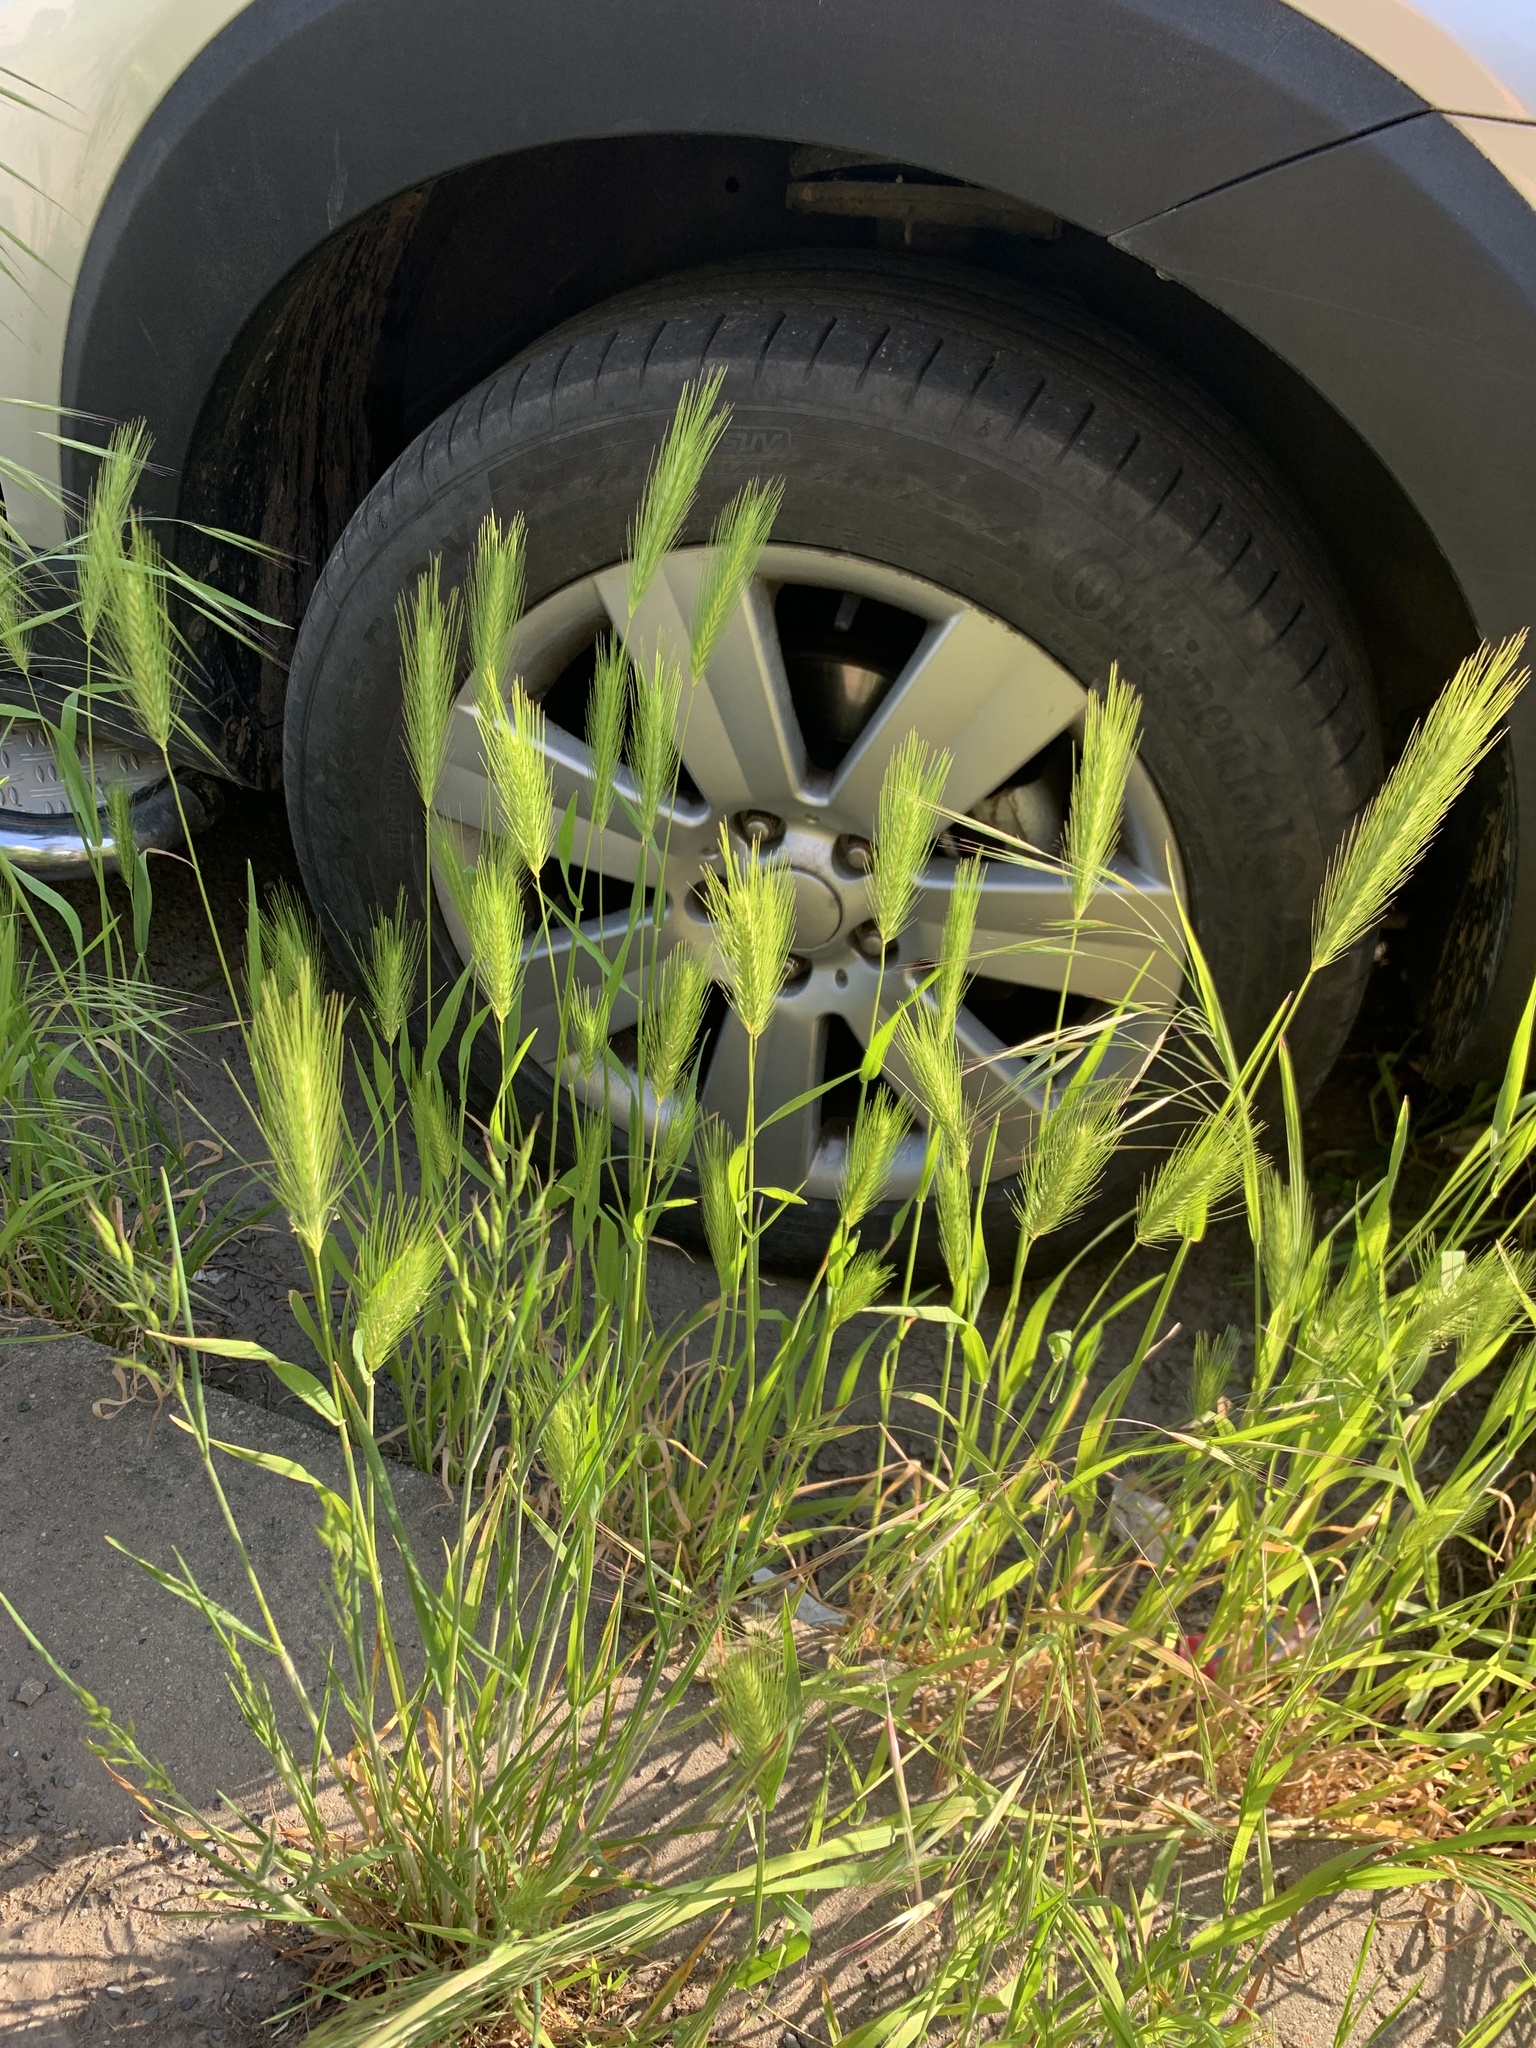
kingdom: Plantae
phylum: Tracheophyta
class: Liliopsida
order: Poales
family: Poaceae
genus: Hordeum
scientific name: Hordeum murinum
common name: Wall barley
